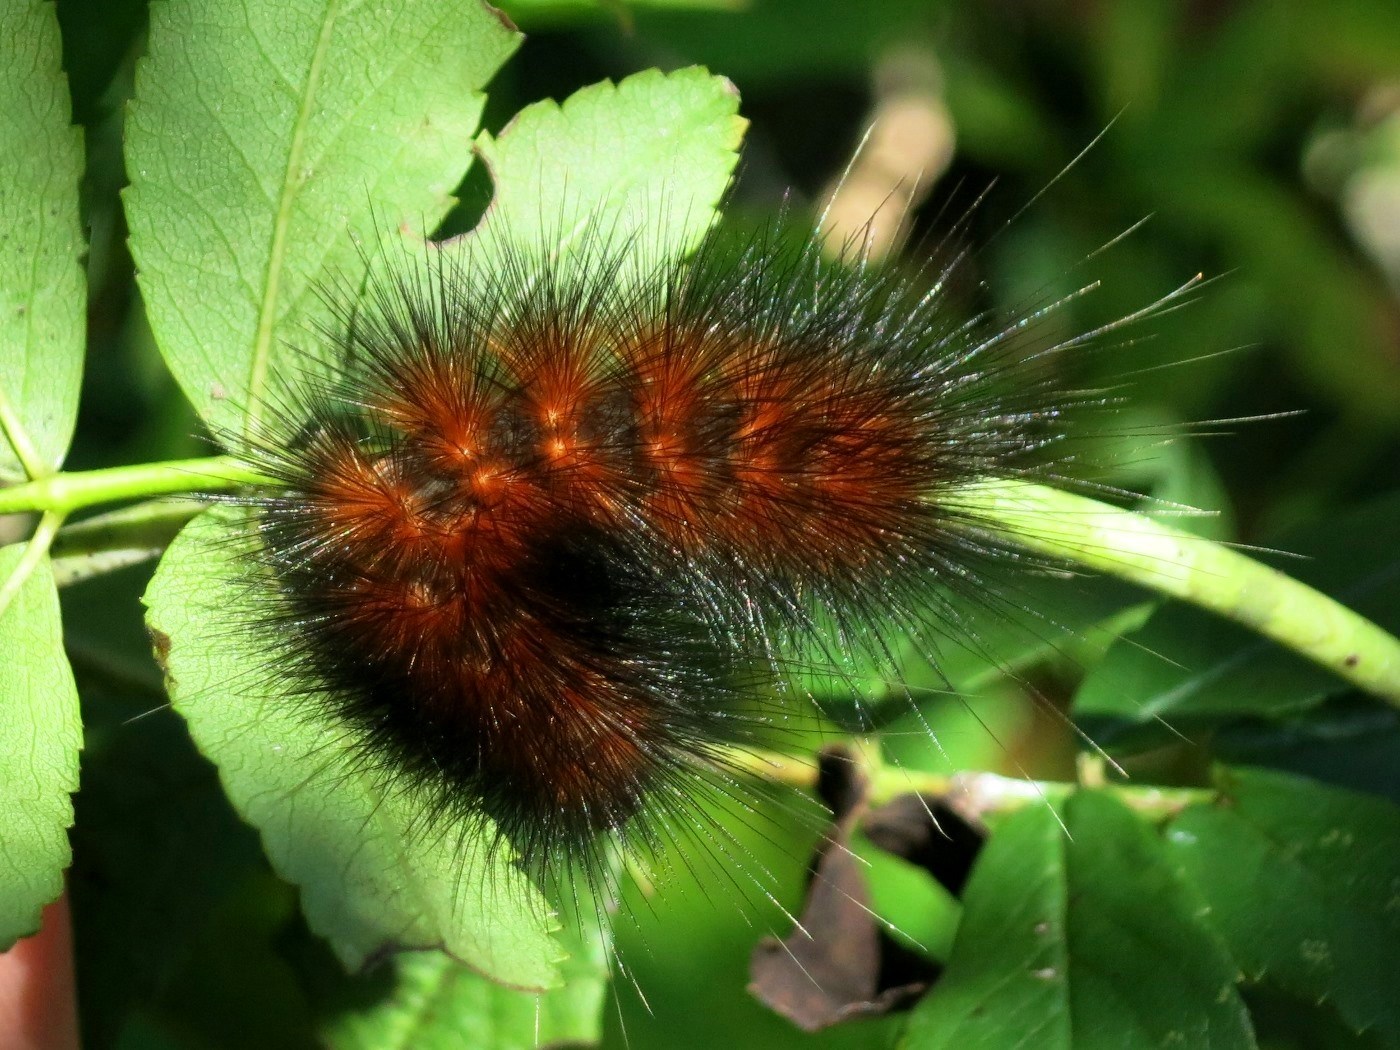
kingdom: Animalia
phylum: Arthropoda
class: Insecta
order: Lepidoptera
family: Erebidae
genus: Spilosoma
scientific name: Spilosoma virginica
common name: Virginia tiger moth
